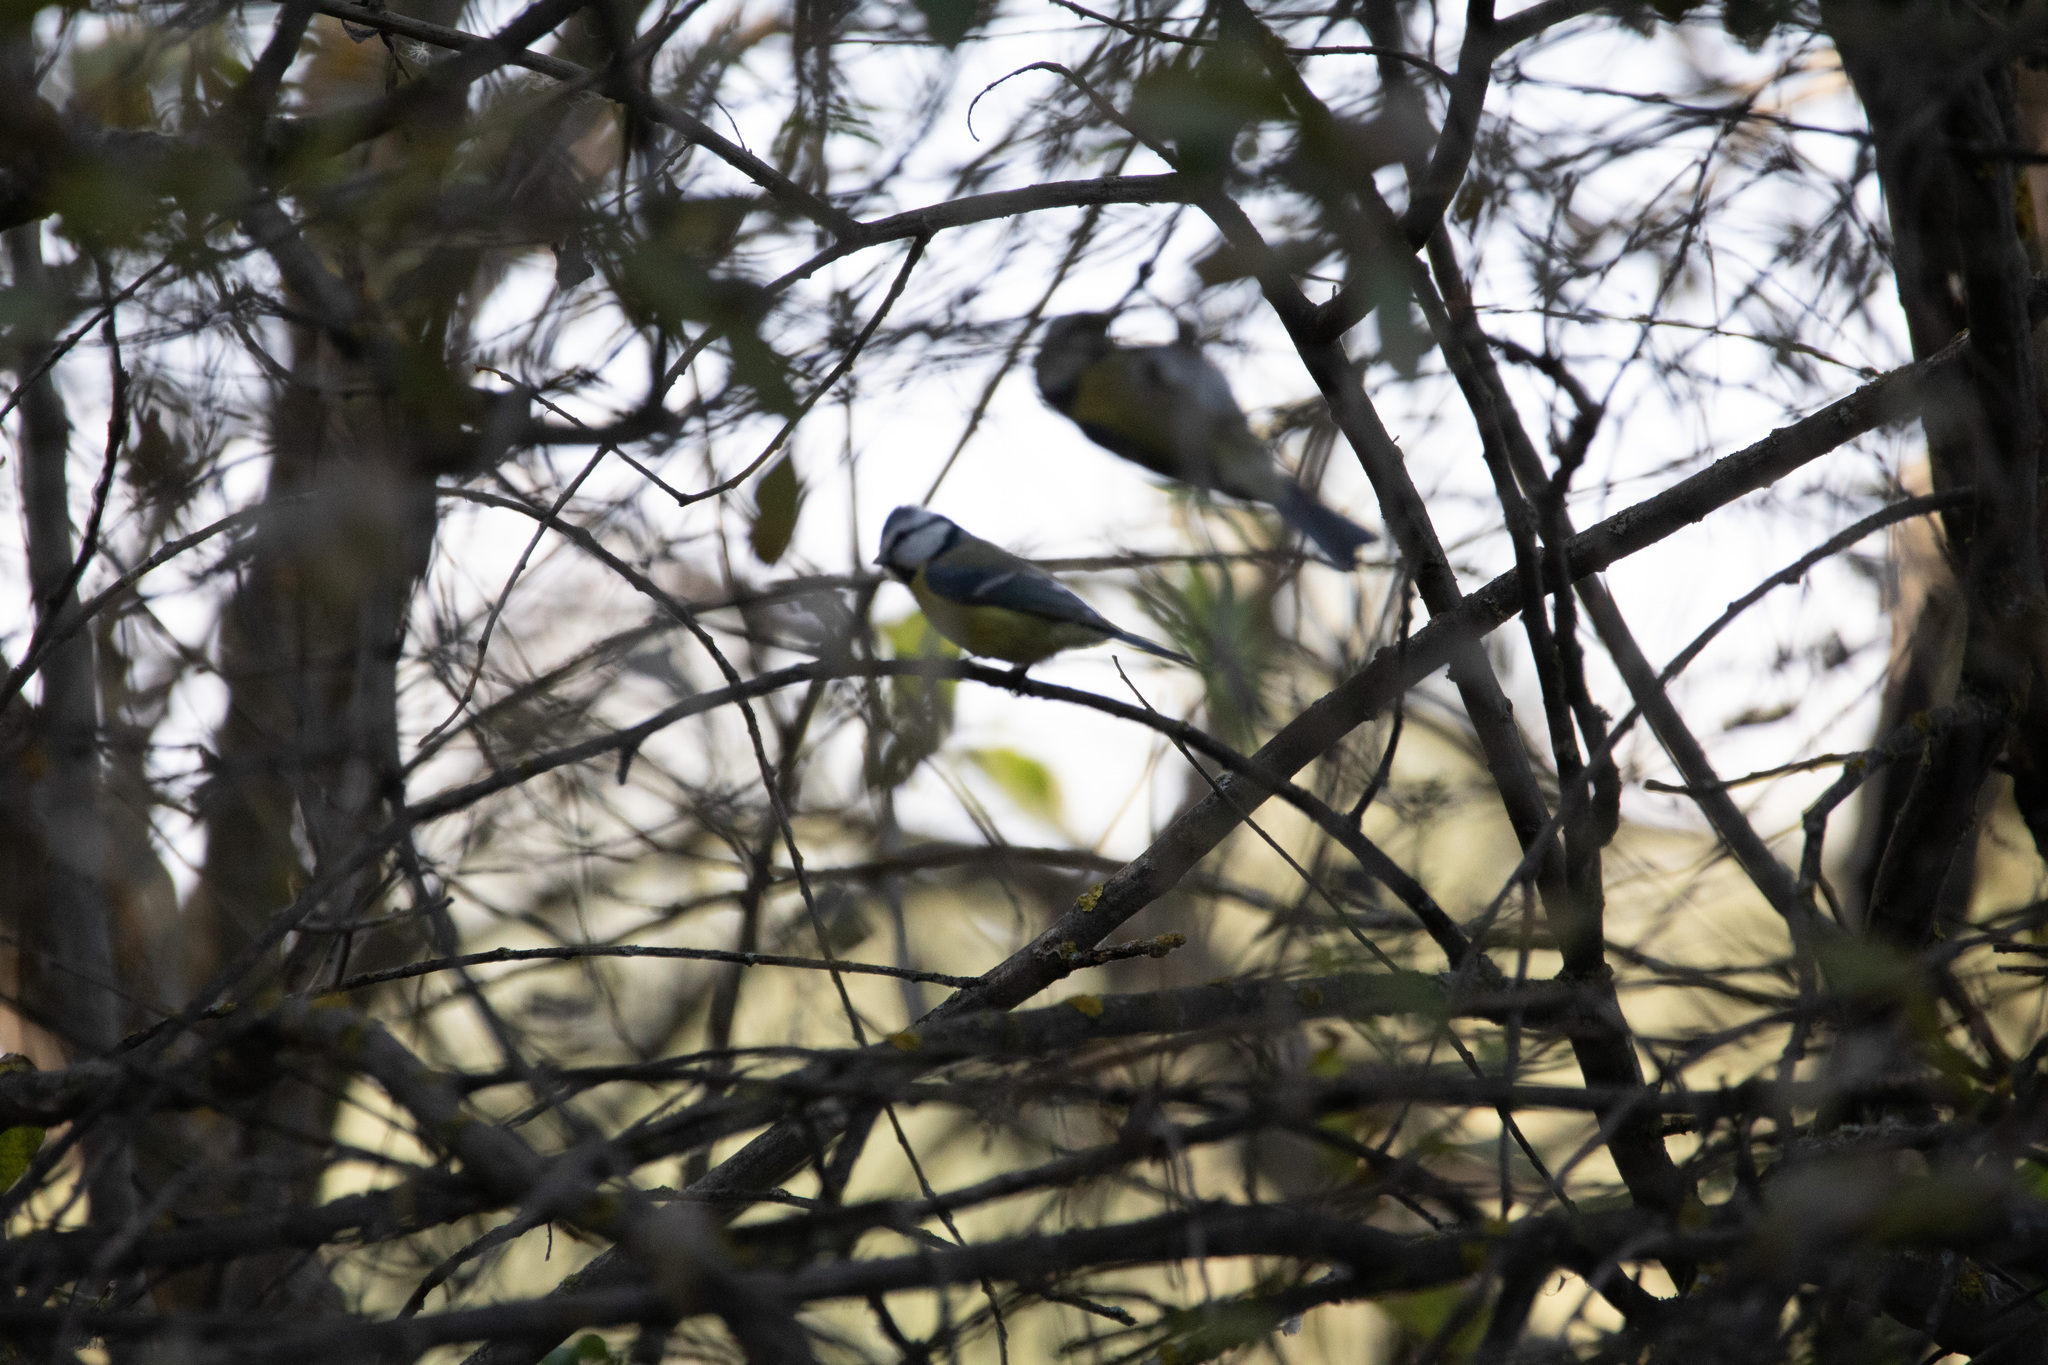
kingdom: Animalia
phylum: Chordata
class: Aves
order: Passeriformes
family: Paridae
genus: Cyanistes
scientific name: Cyanistes caeruleus
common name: Eurasian blue tit
